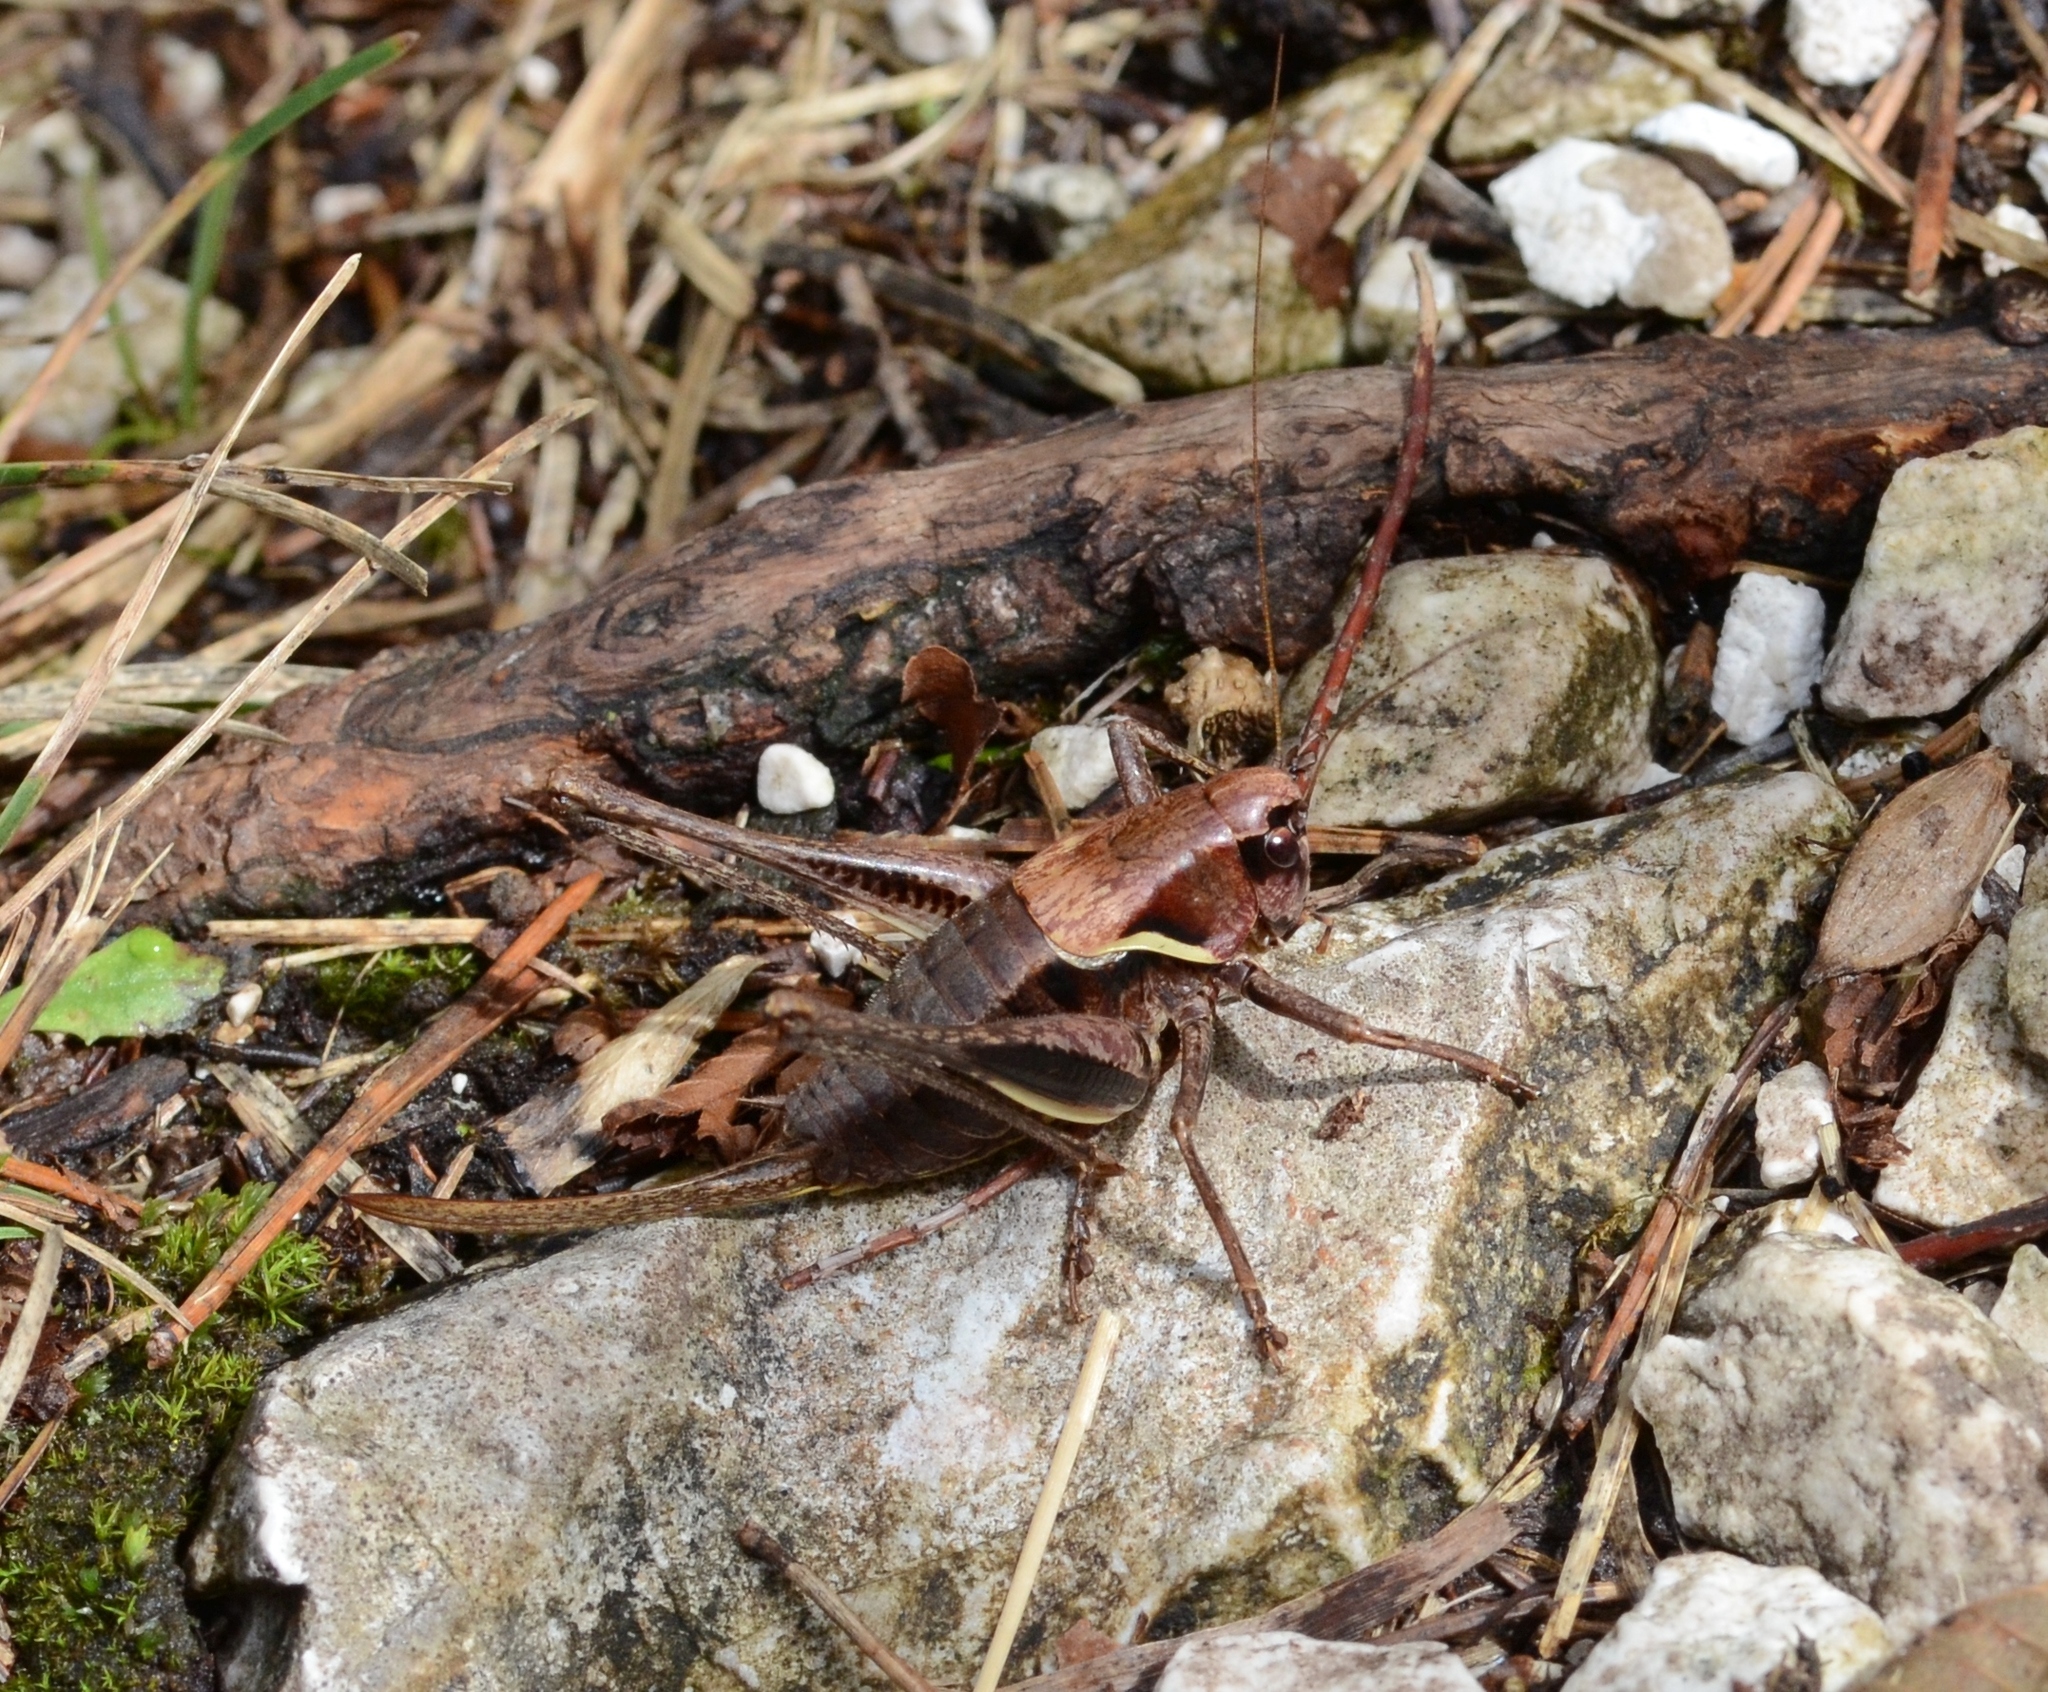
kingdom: Animalia
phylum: Arthropoda
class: Insecta
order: Orthoptera
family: Tettigoniidae
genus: Pholidoptera
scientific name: Pholidoptera aptera
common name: Alpine dark bush-cricket
